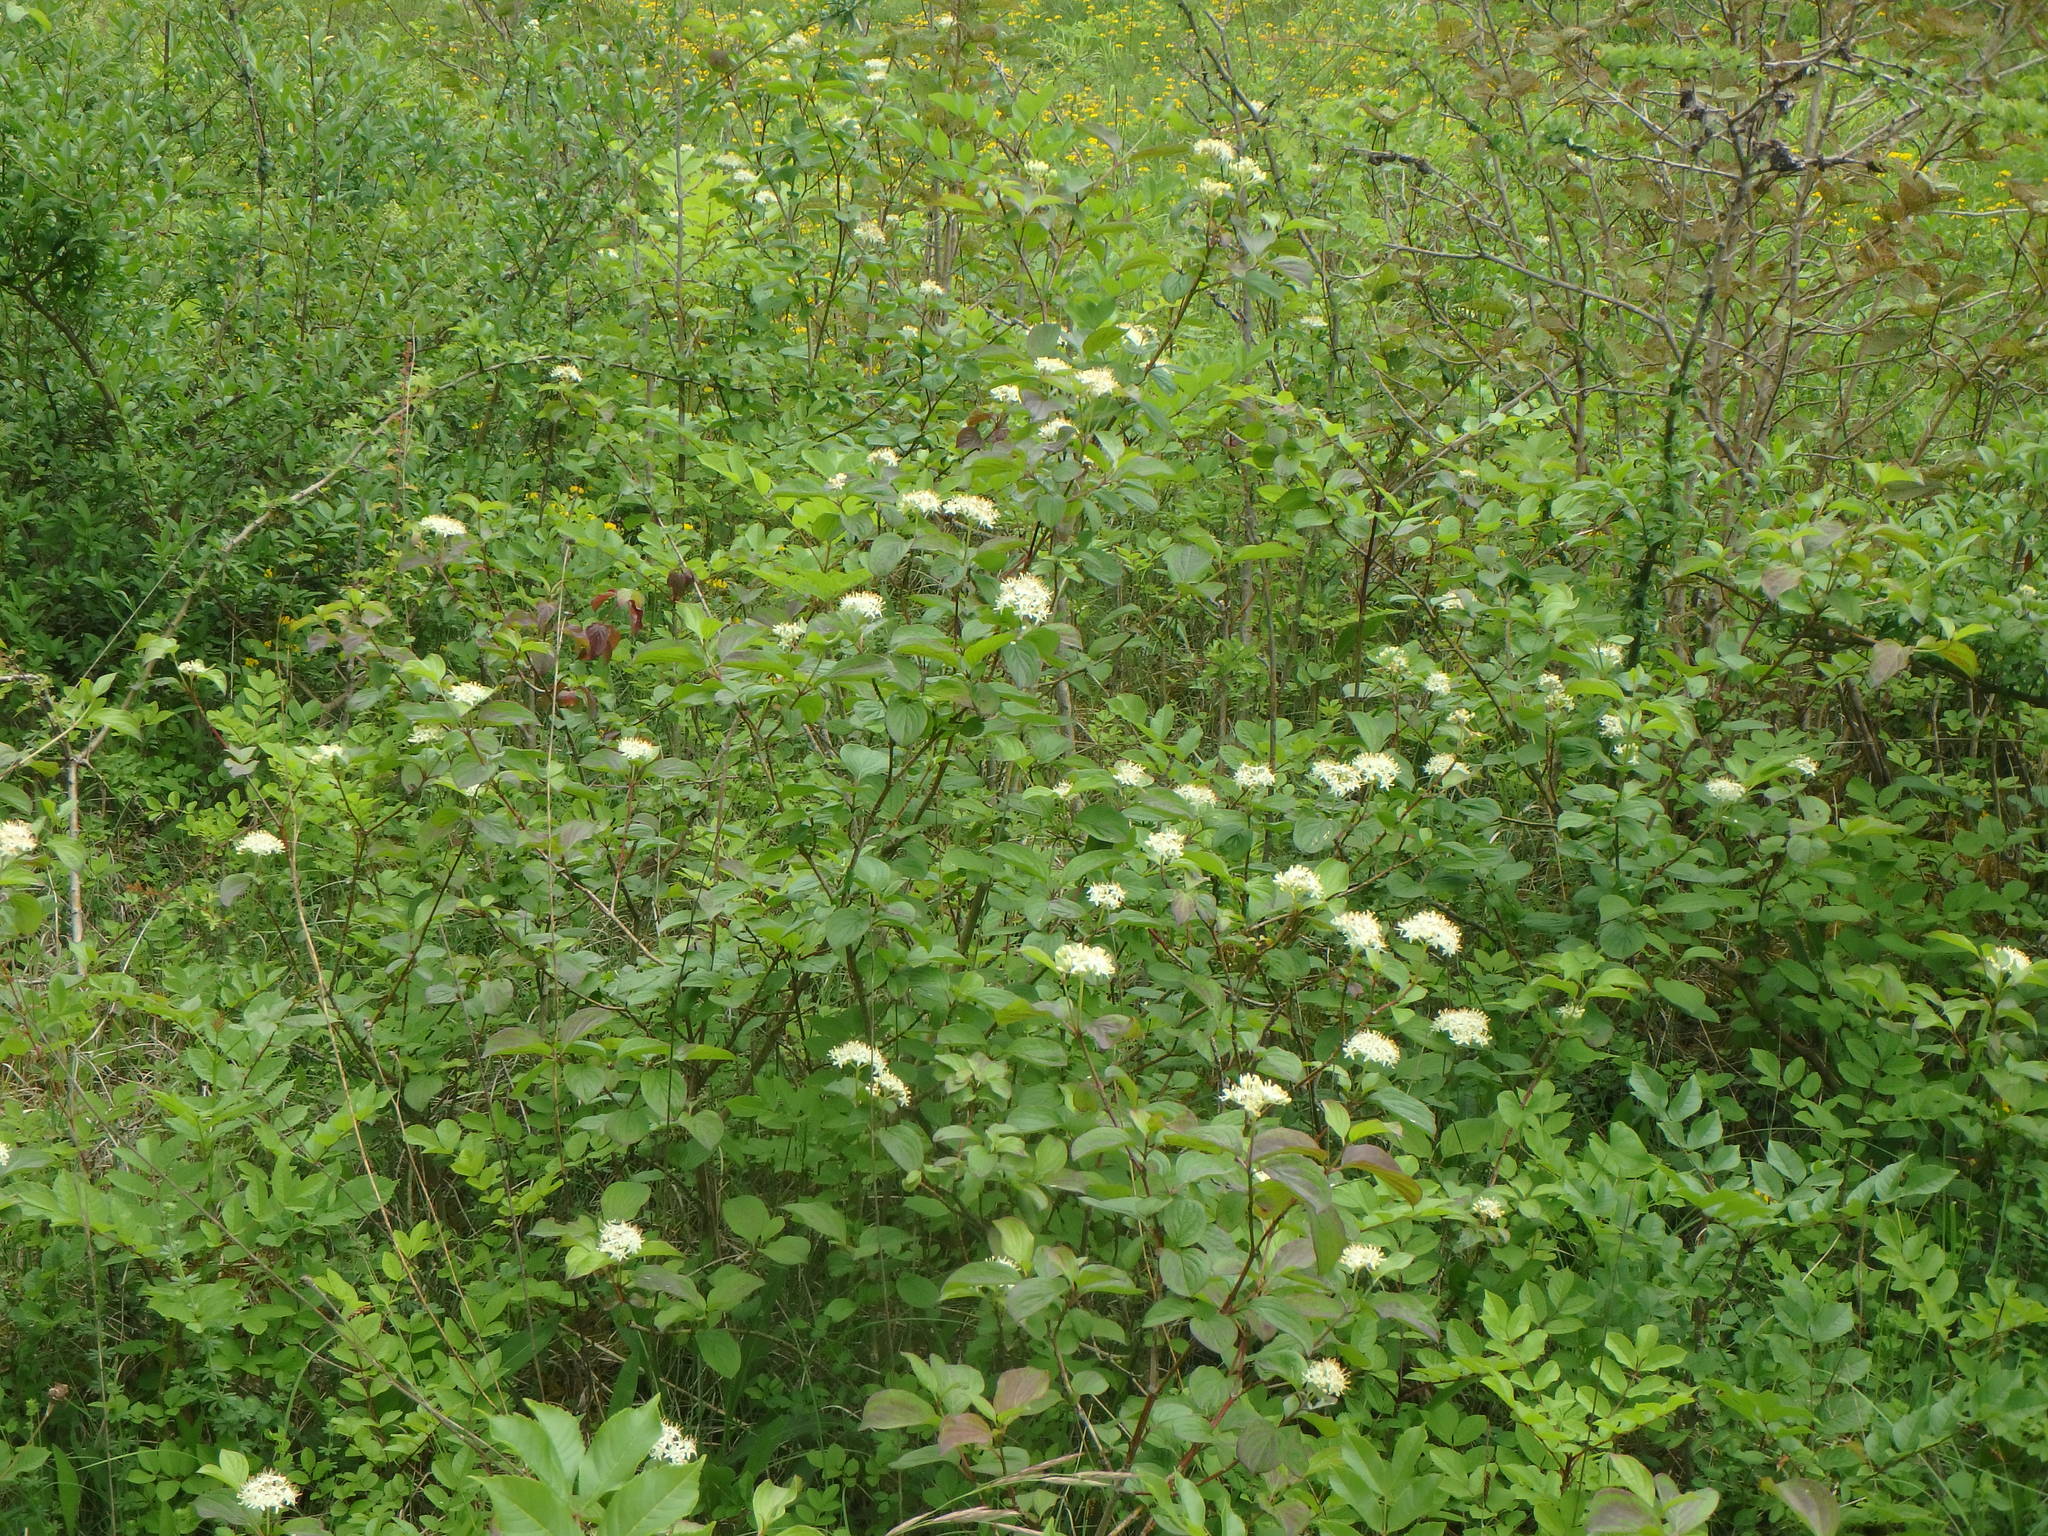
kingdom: Plantae
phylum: Tracheophyta
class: Magnoliopsida
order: Cornales
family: Cornaceae
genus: Cornus
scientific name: Cornus sanguinea
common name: Dogwood
